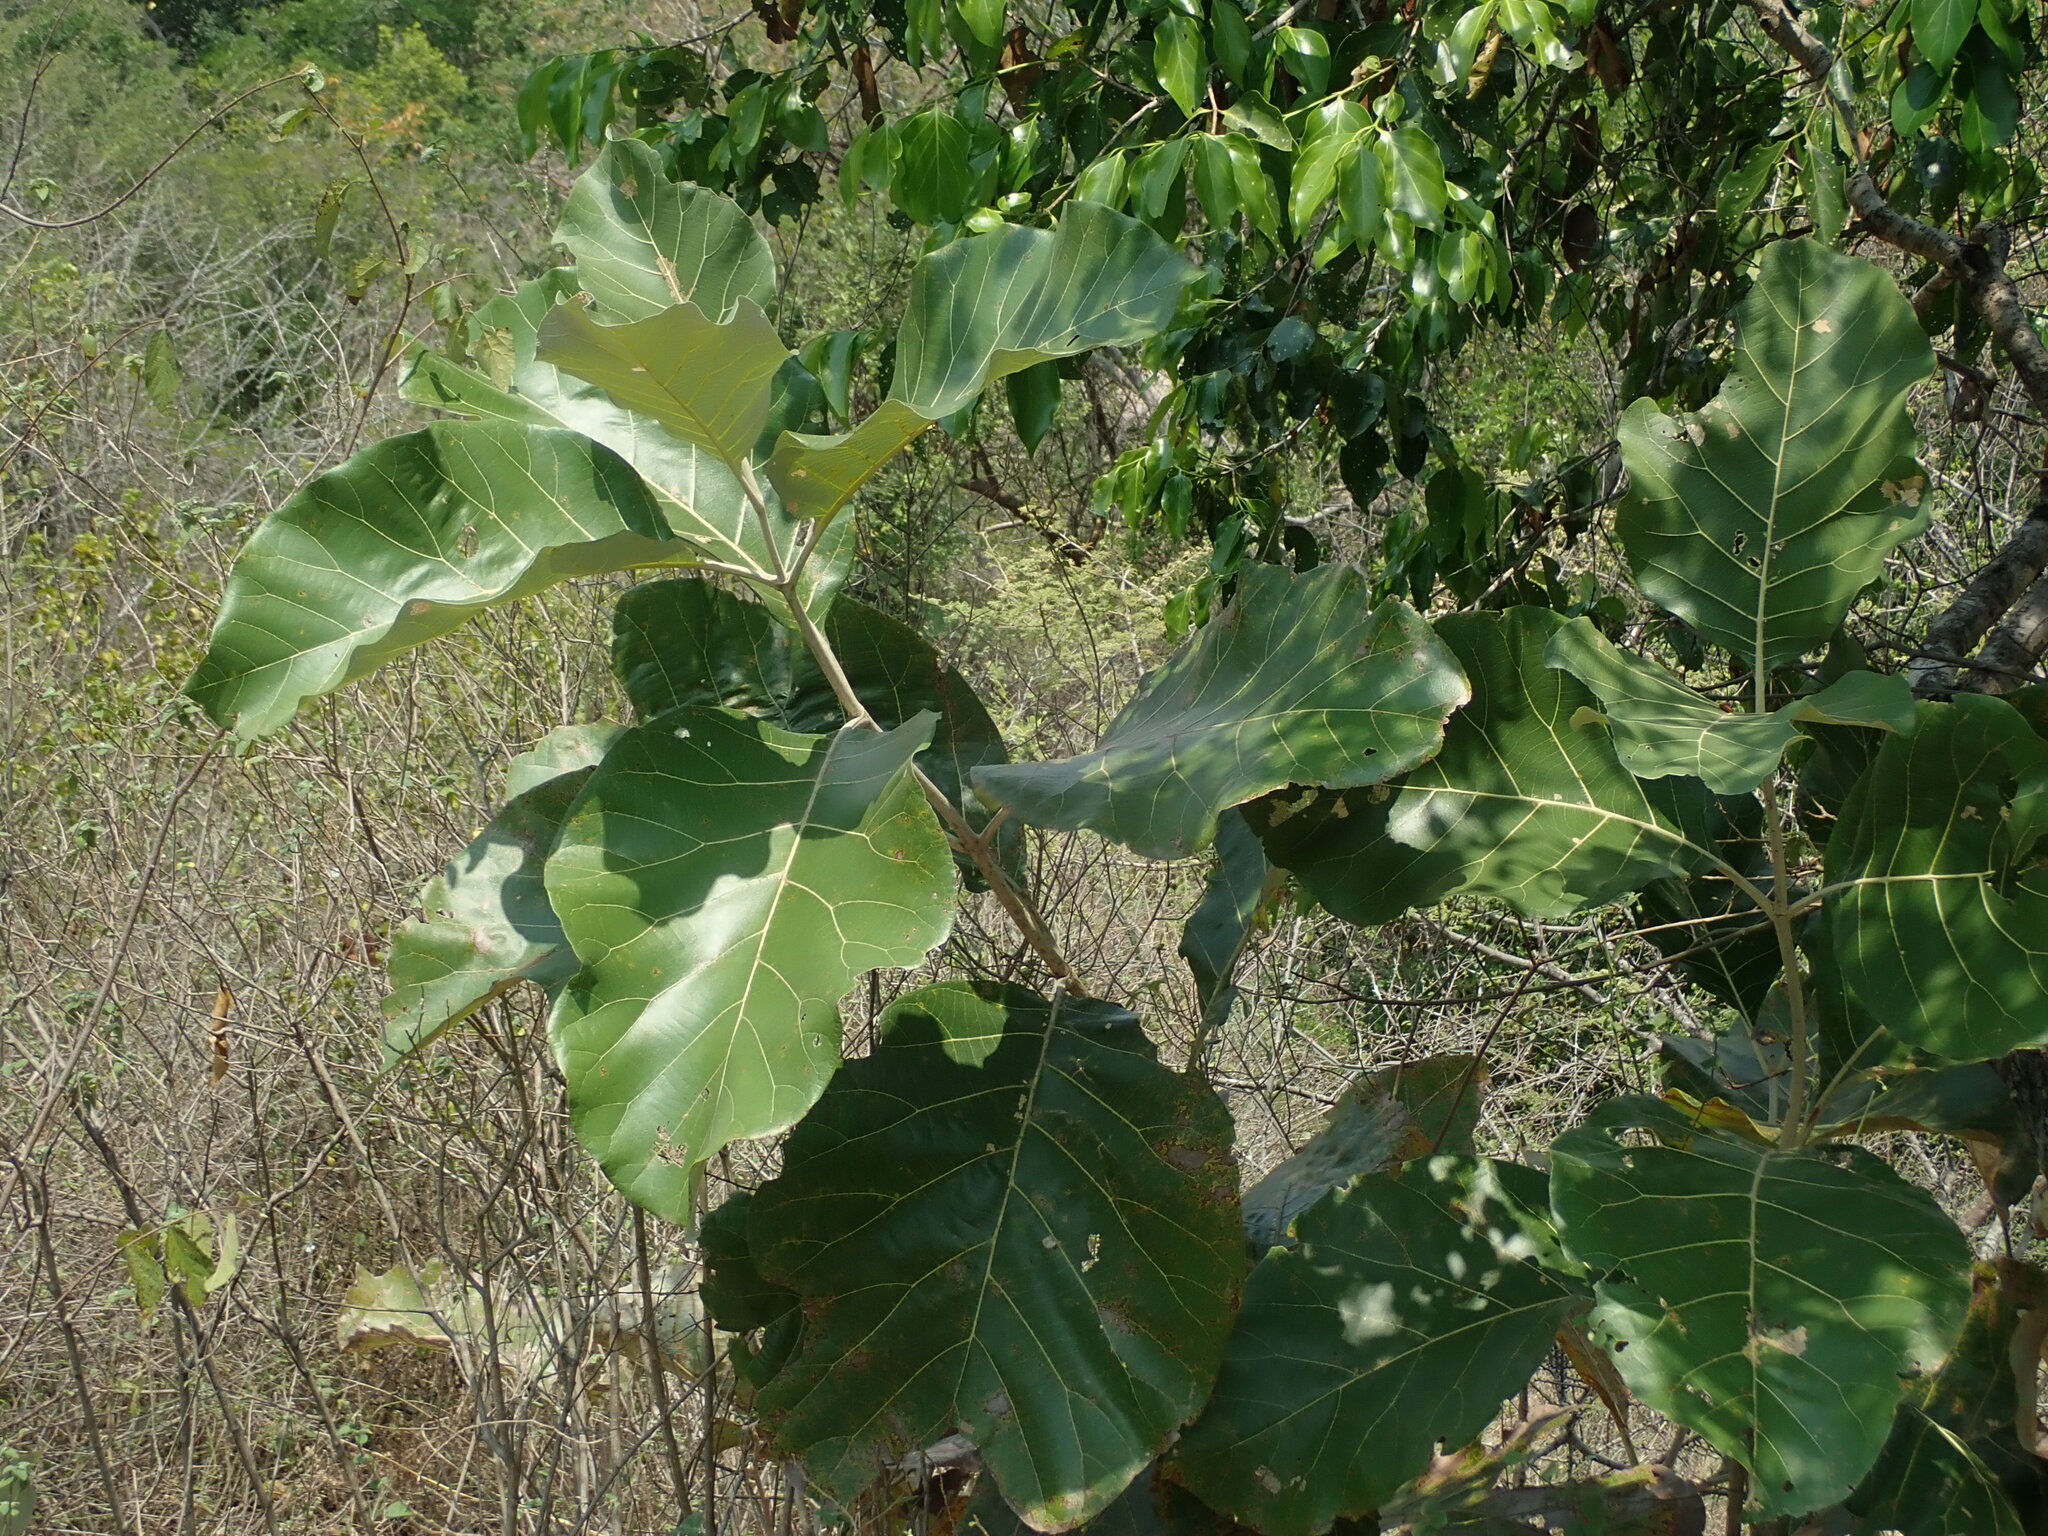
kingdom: Plantae
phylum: Tracheophyta
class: Magnoliopsida
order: Lamiales
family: Lamiaceae
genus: Tectona
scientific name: Tectona grandis
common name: Teak
